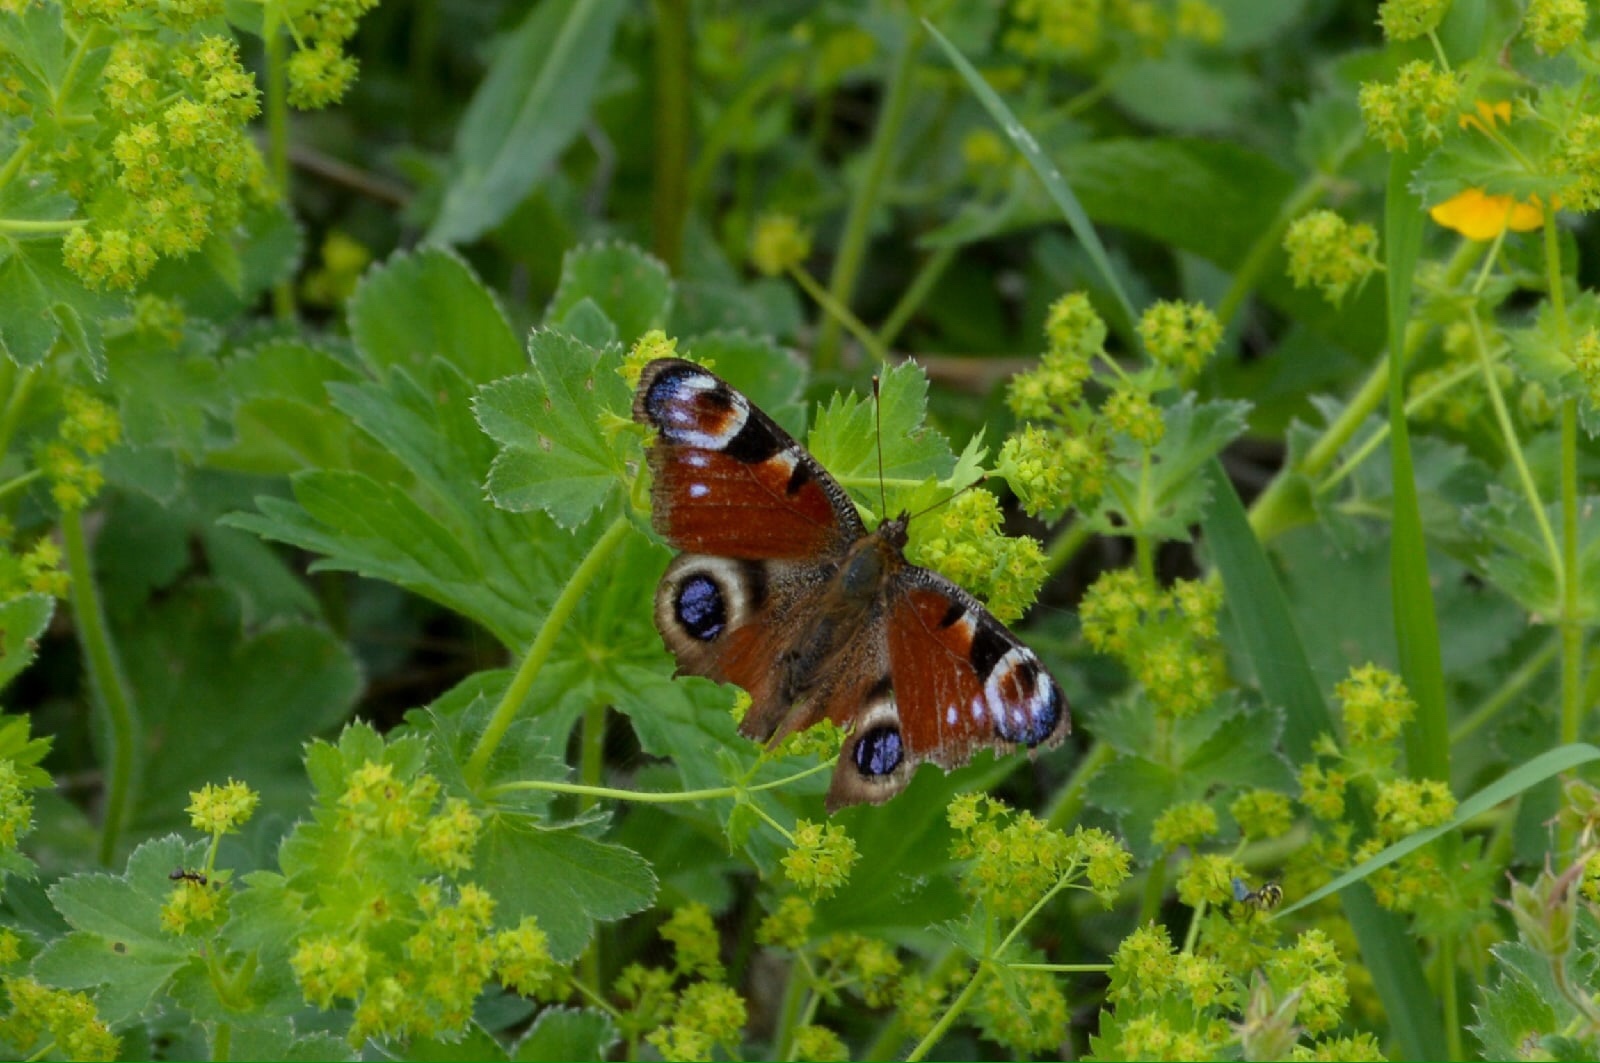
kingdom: Animalia
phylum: Arthropoda
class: Insecta
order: Lepidoptera
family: Nymphalidae
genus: Aglais
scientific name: Aglais io
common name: Peacock
